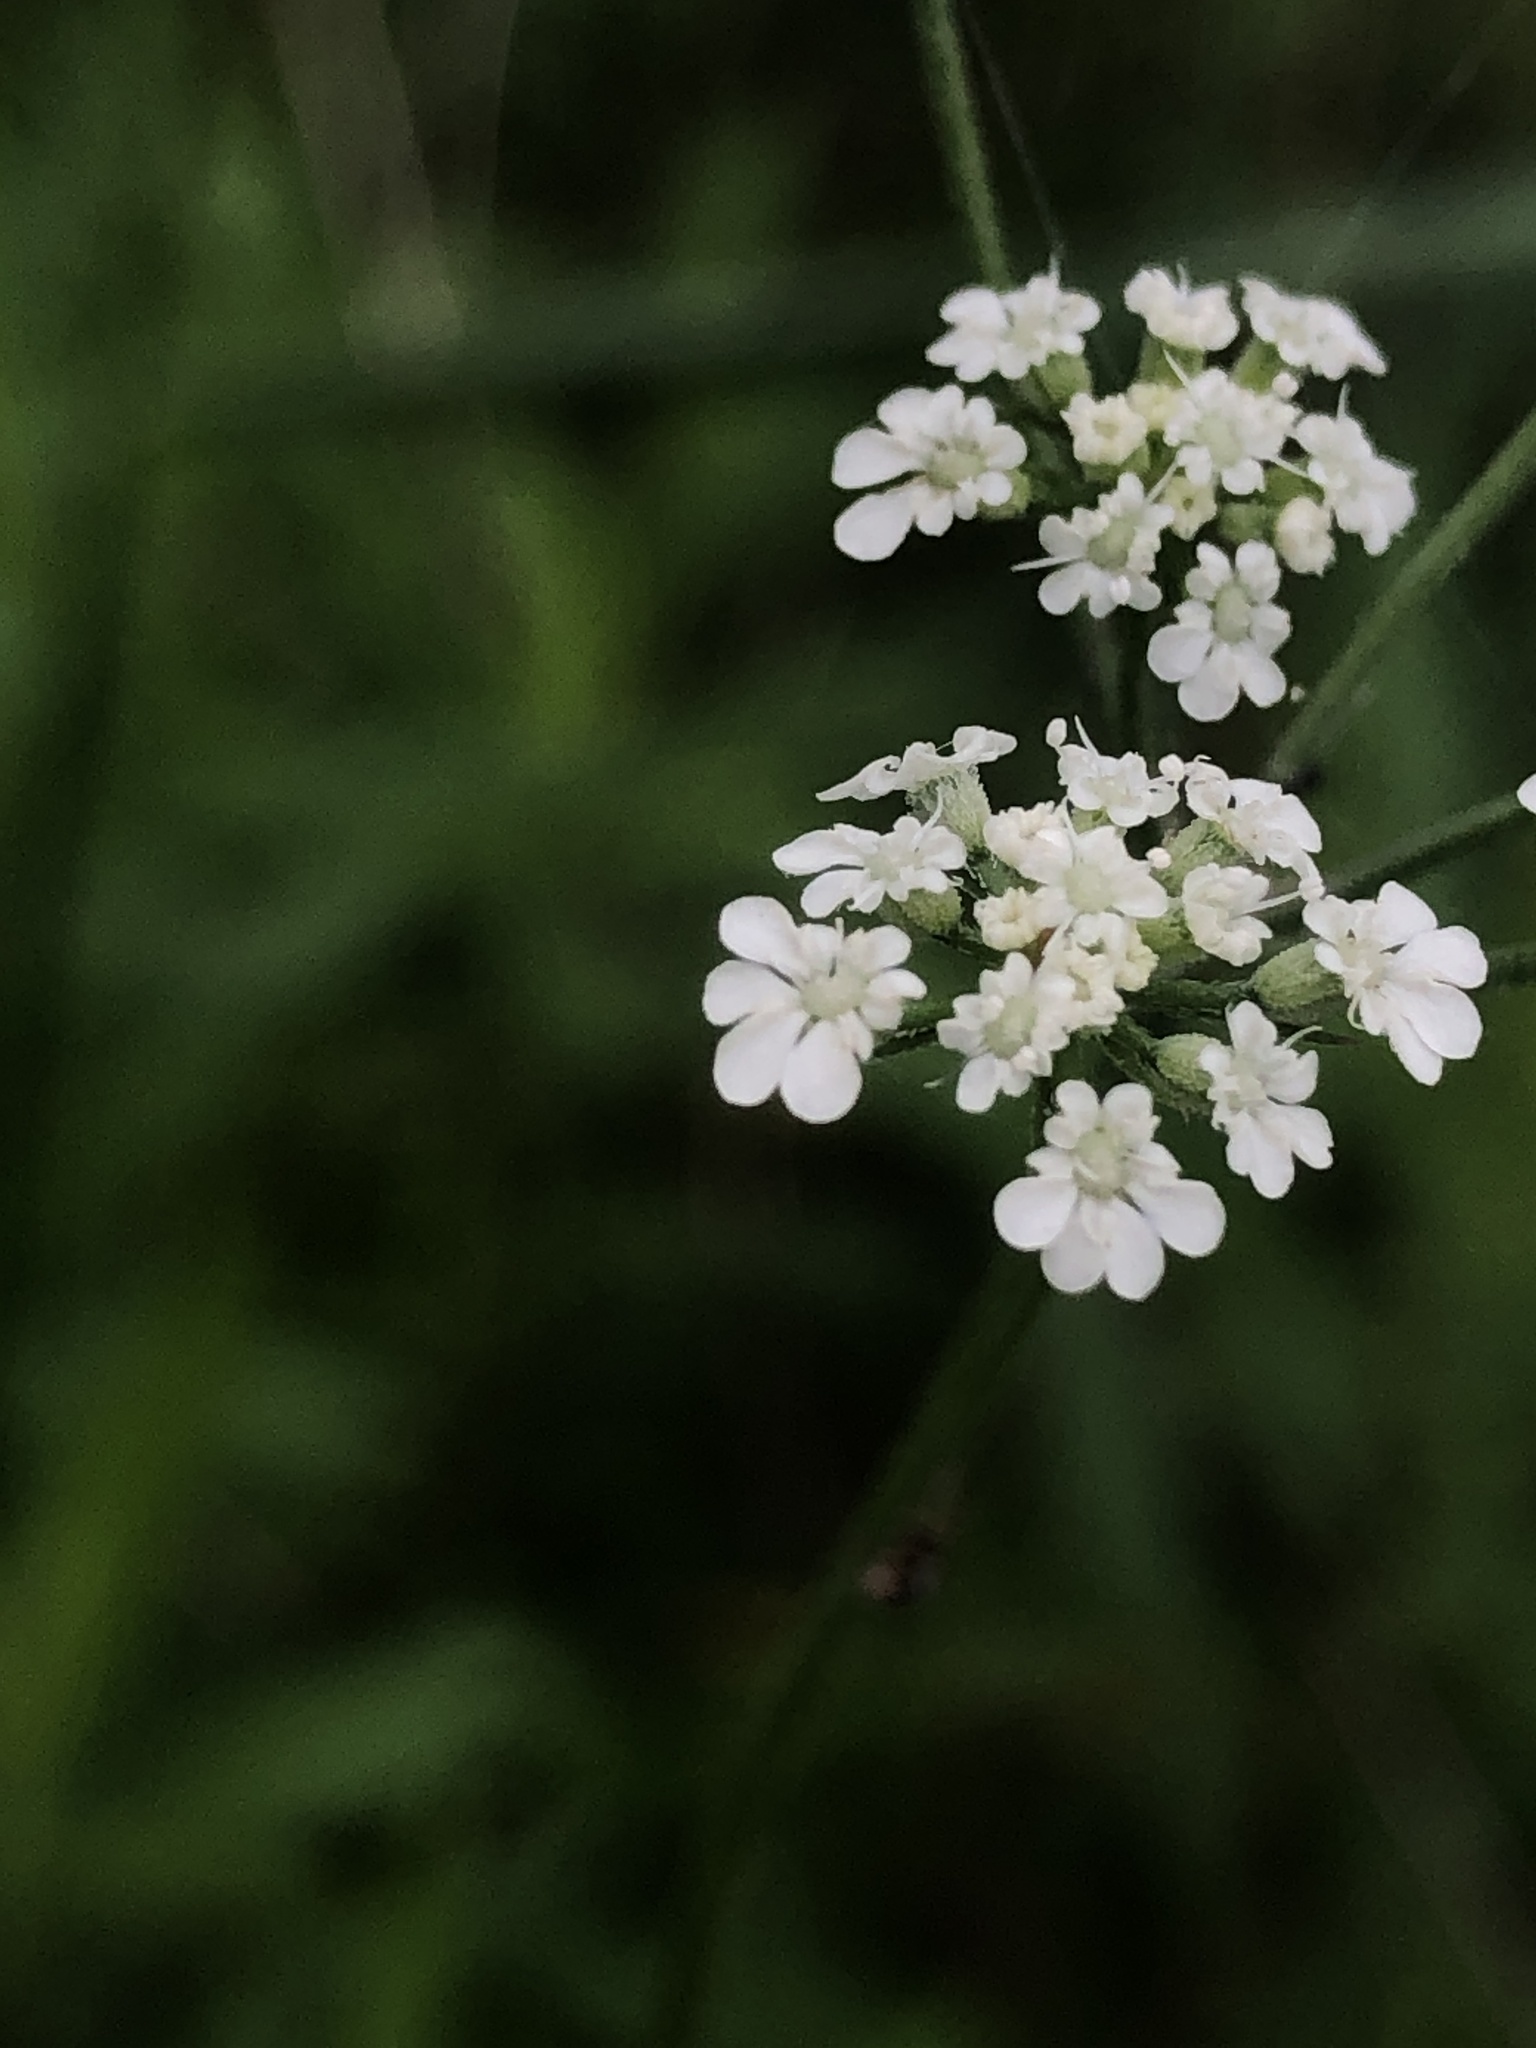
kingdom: Plantae
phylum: Tracheophyta
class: Magnoliopsida
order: Apiales
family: Apiaceae
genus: Torilis
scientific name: Torilis arvensis
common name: Spreading hedge-parsley
